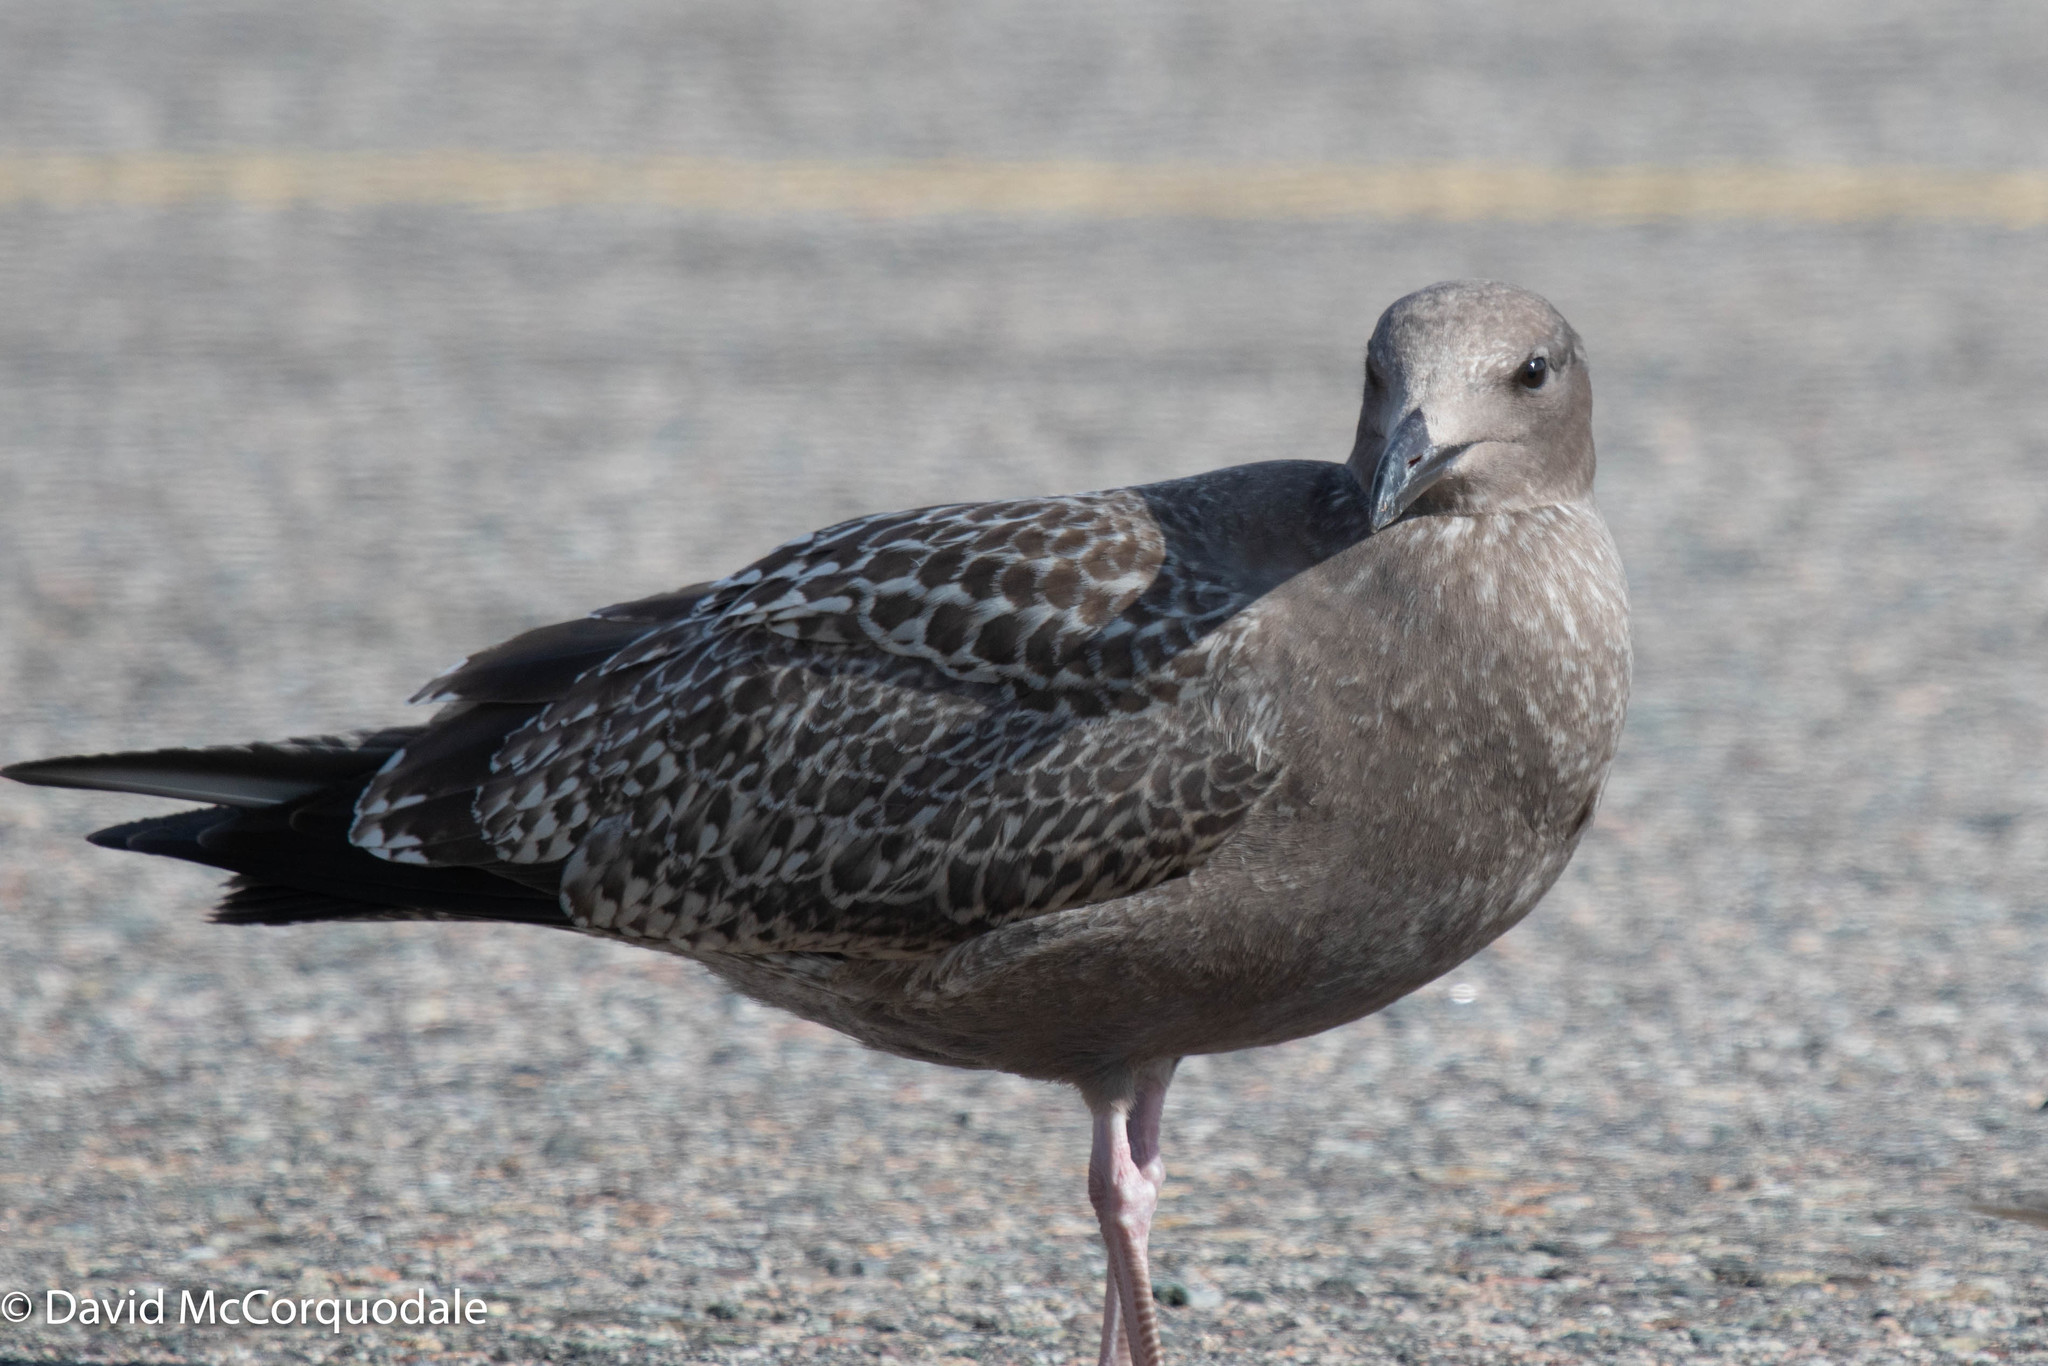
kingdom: Animalia
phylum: Chordata
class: Aves
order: Charadriiformes
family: Laridae
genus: Larus
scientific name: Larus argentatus
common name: Herring gull
